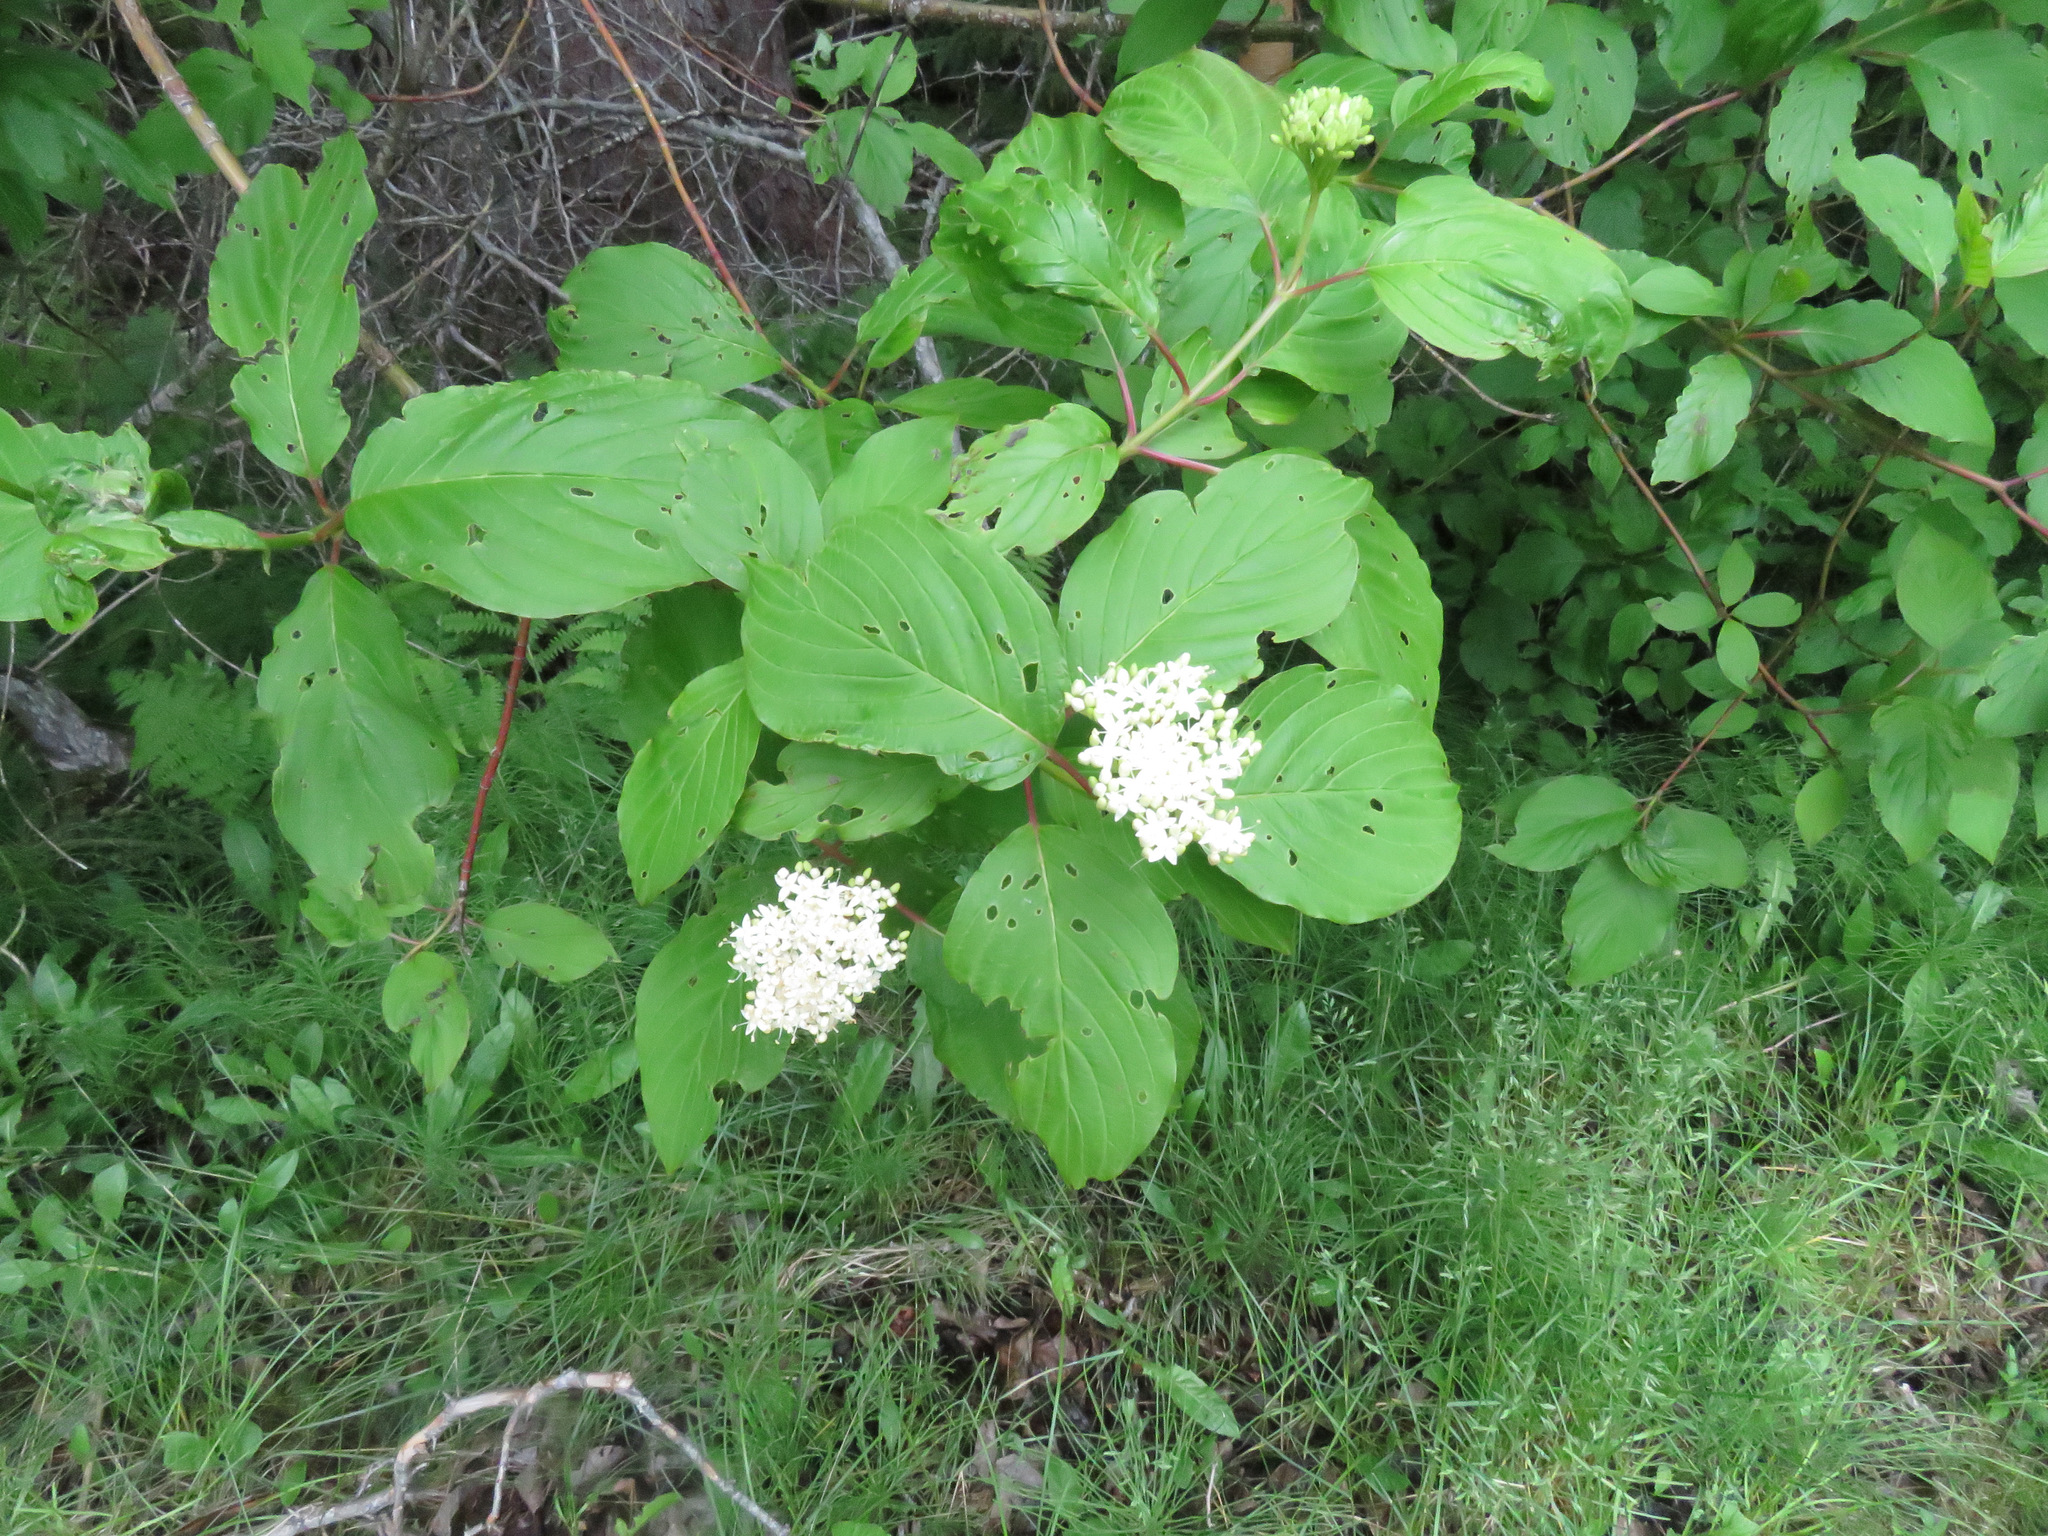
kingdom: Plantae
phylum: Tracheophyta
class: Magnoliopsida
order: Cornales
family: Cornaceae
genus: Cornus
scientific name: Cornus sericea
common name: Red-osier dogwood
